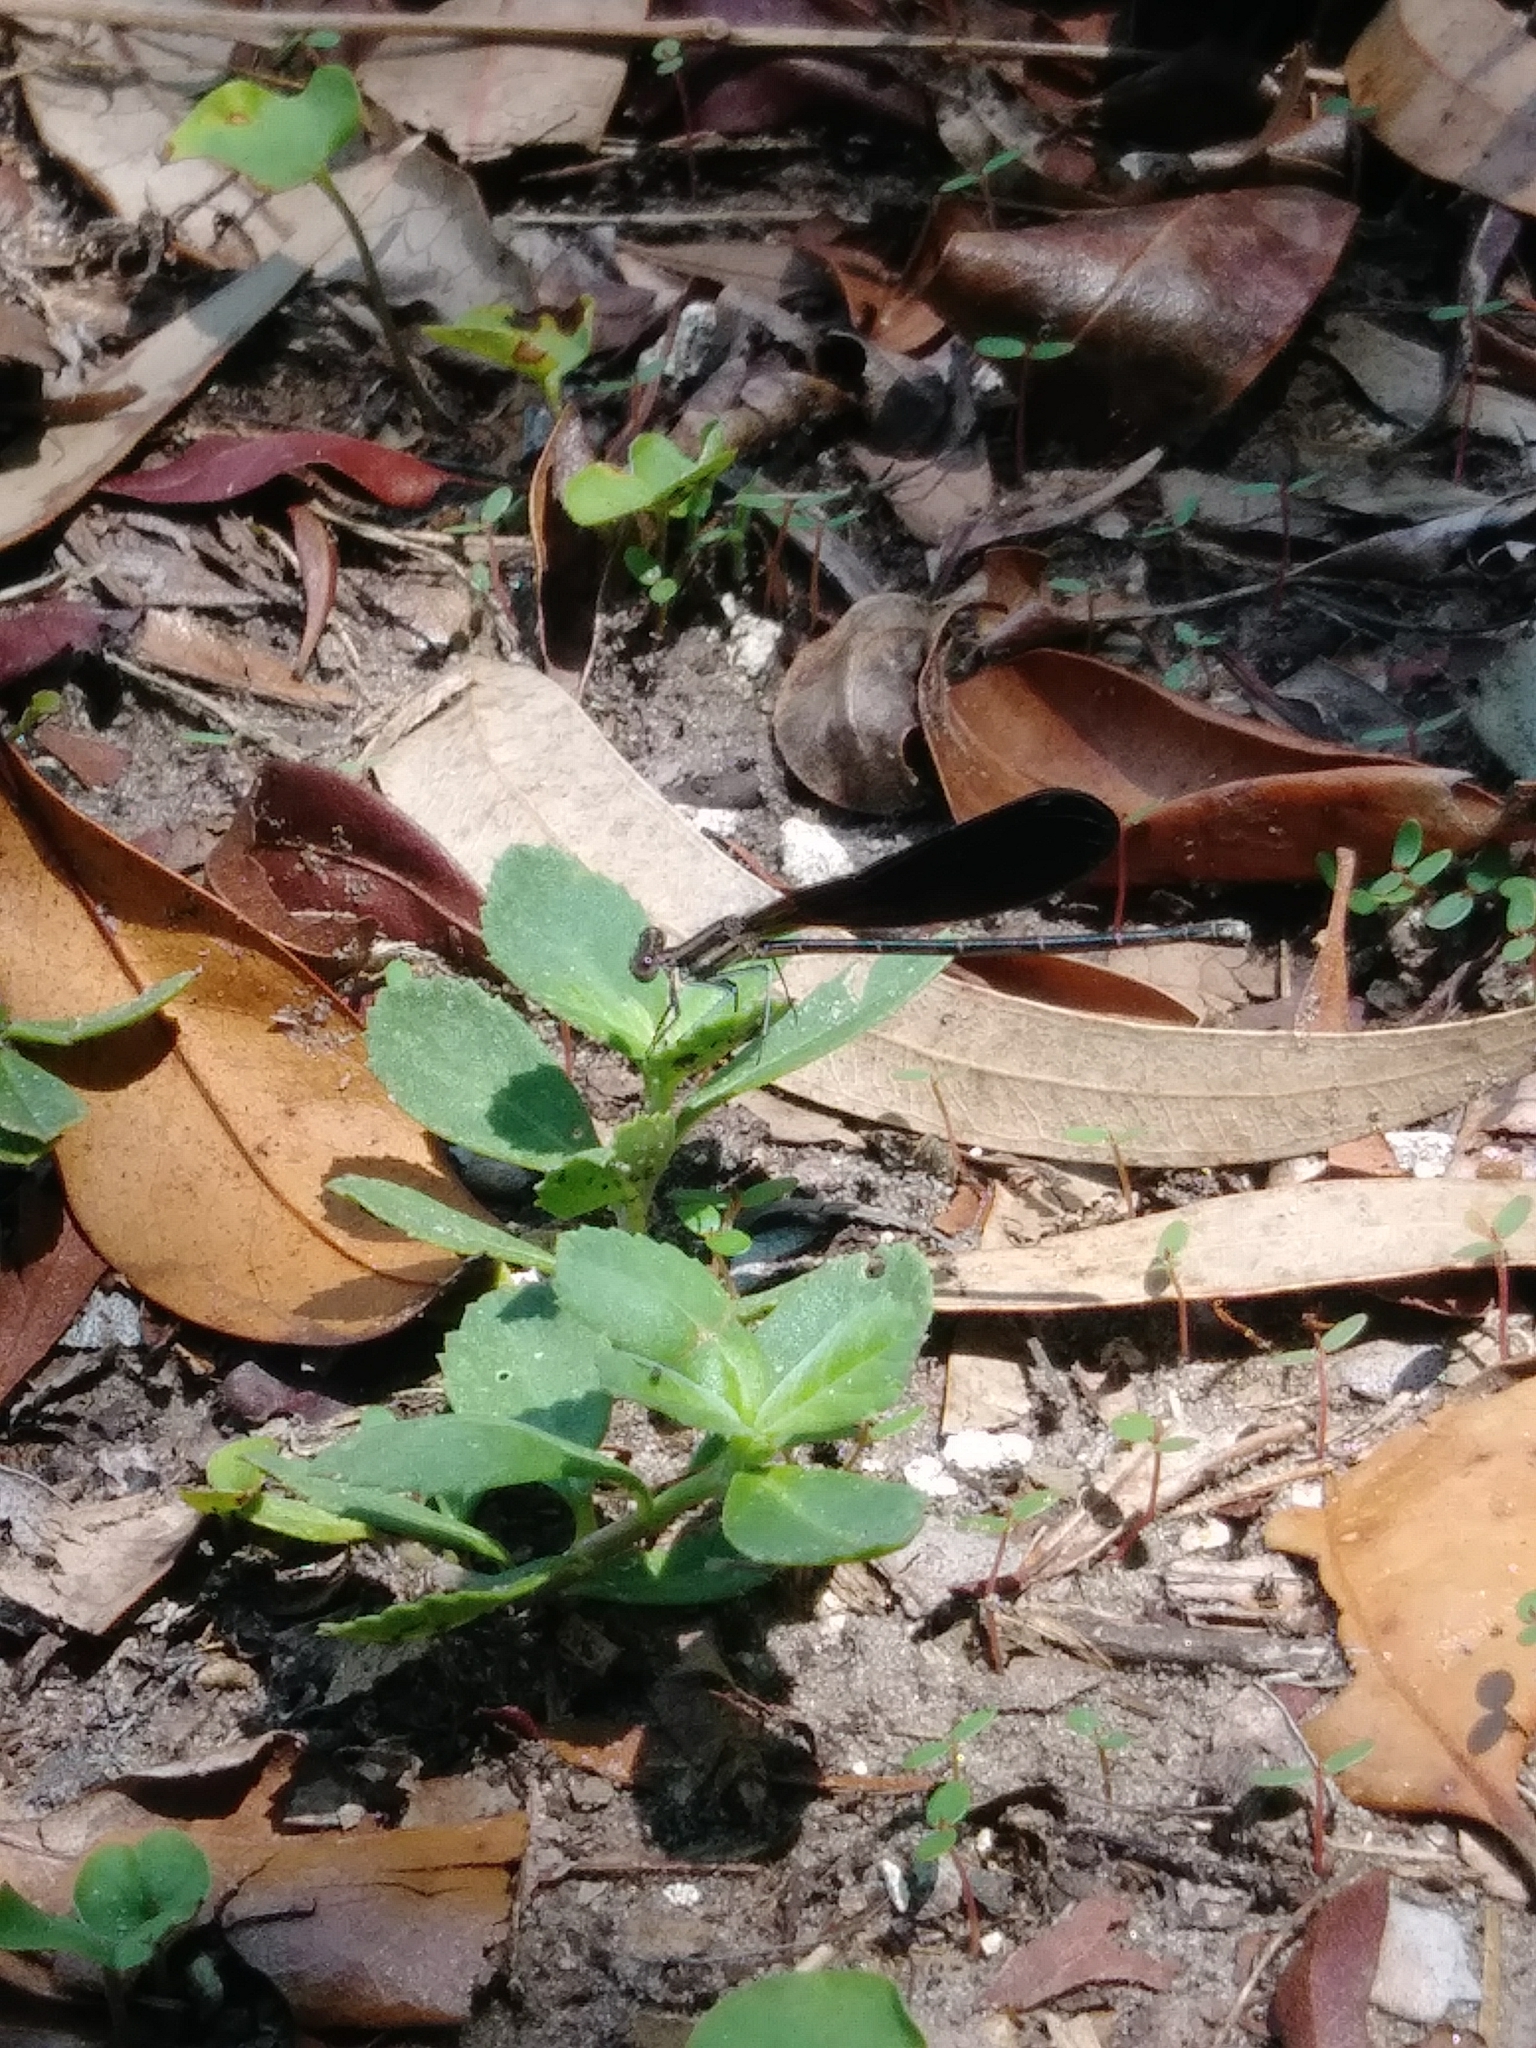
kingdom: Animalia
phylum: Arthropoda
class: Insecta
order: Odonata
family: Coenagrionidae
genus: Argia
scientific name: Argia fumipennis
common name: Variable dancer
